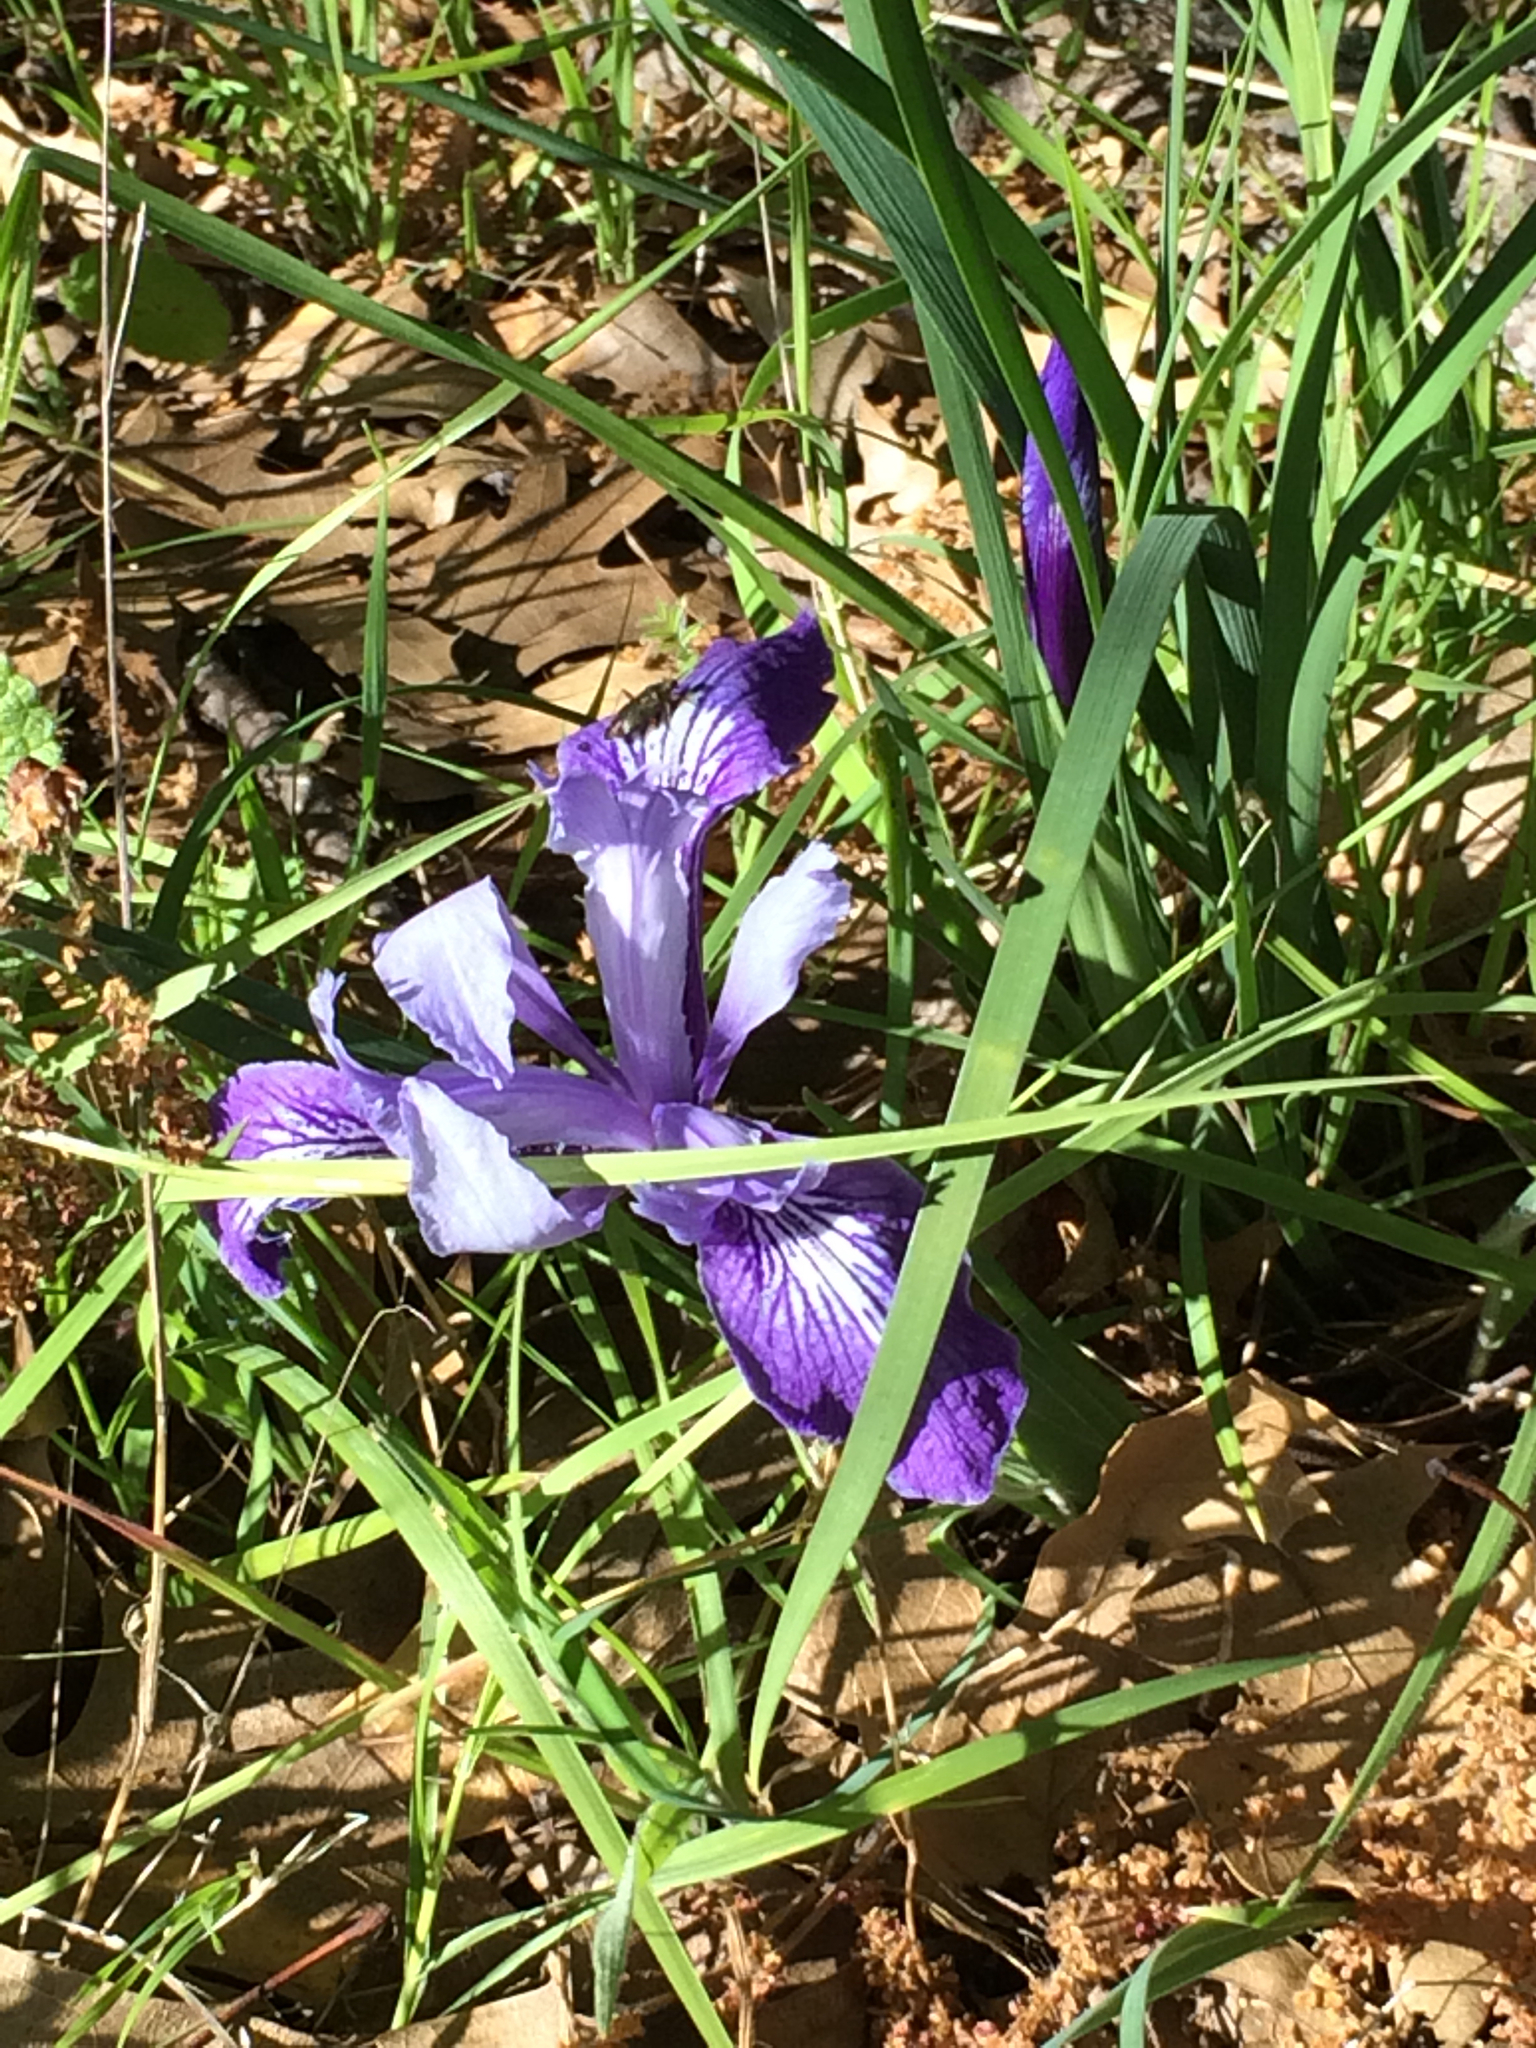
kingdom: Plantae
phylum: Tracheophyta
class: Liliopsida
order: Asparagales
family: Iridaceae
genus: Iris
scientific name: Iris macrosiphon
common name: Ground iris
